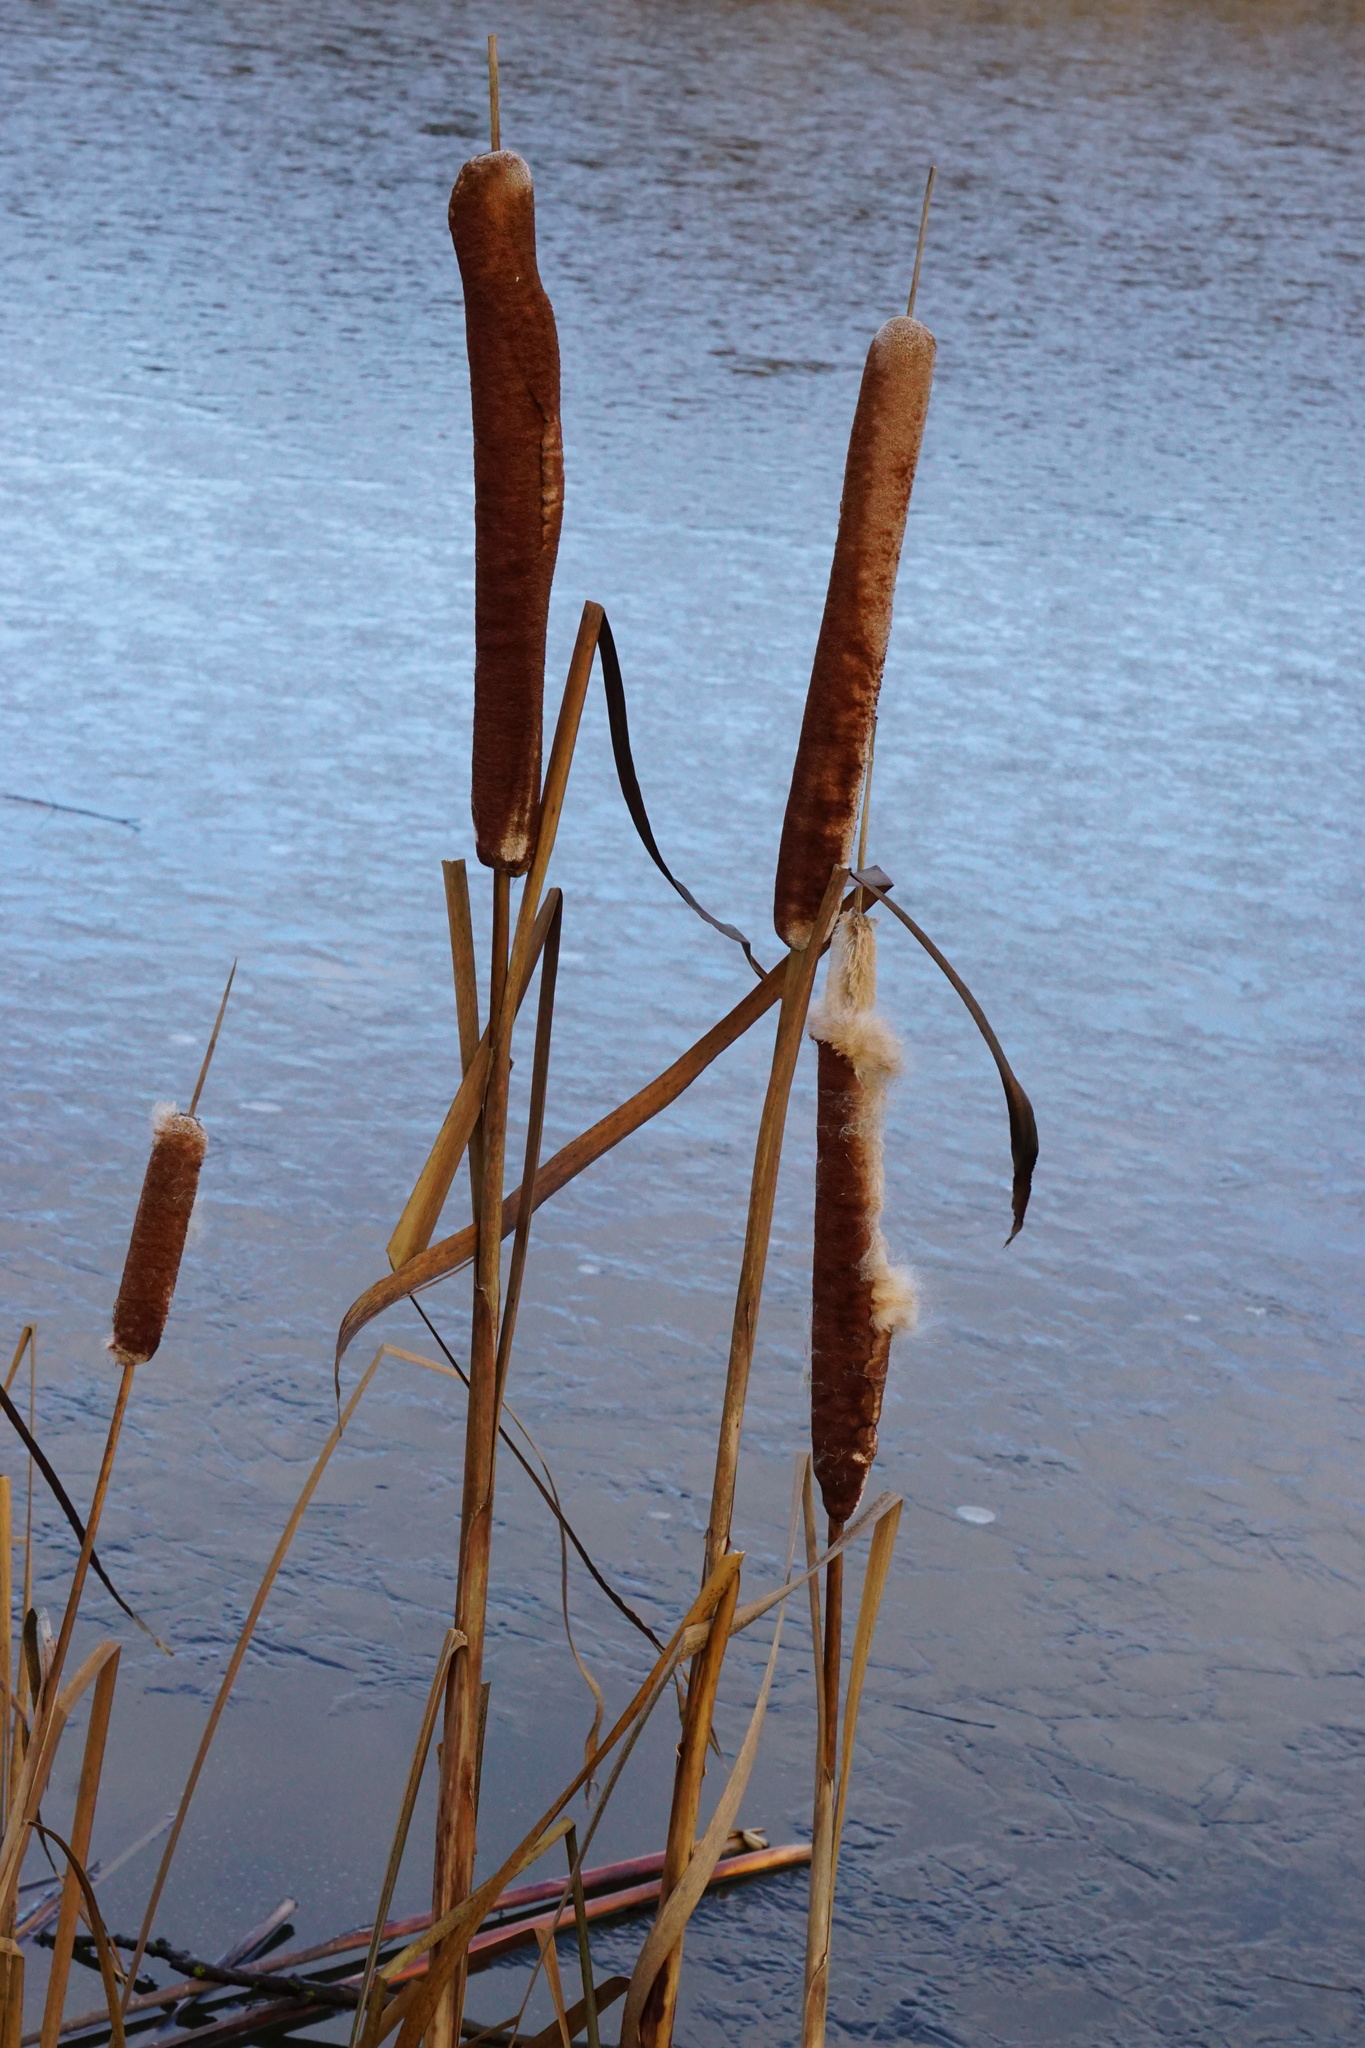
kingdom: Plantae
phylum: Tracheophyta
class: Liliopsida
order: Poales
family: Typhaceae
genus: Typha
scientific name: Typha latifolia
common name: Broadleaf cattail
